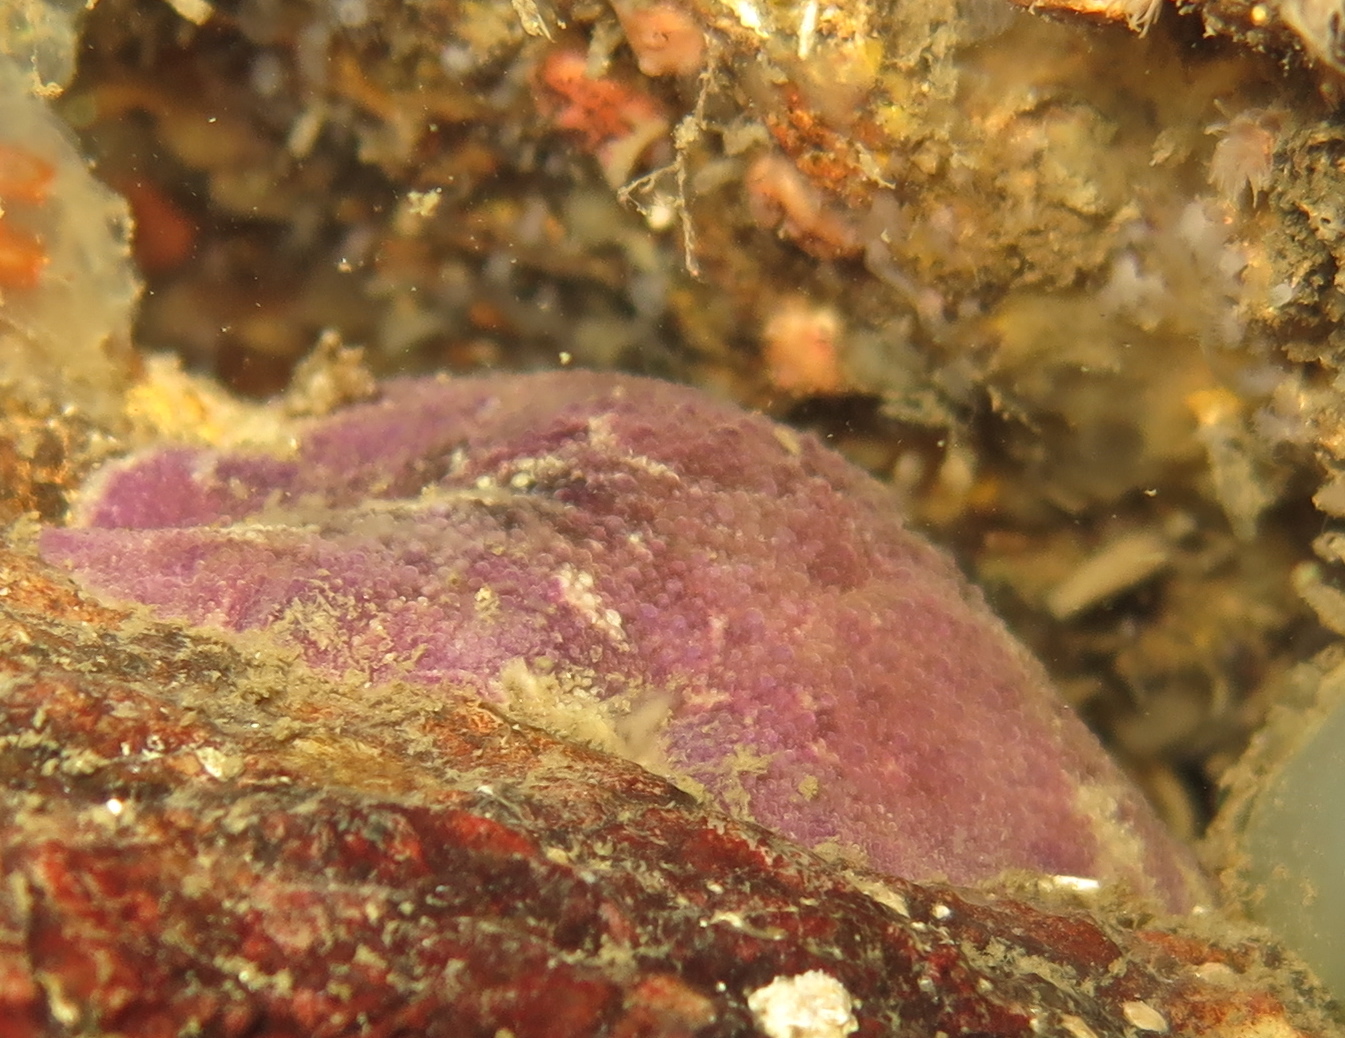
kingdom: Animalia
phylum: Mollusca
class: Gastropoda
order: Nudibranchia
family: Dorididae
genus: Doris
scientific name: Doris pseudoargus
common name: Sea lemon
